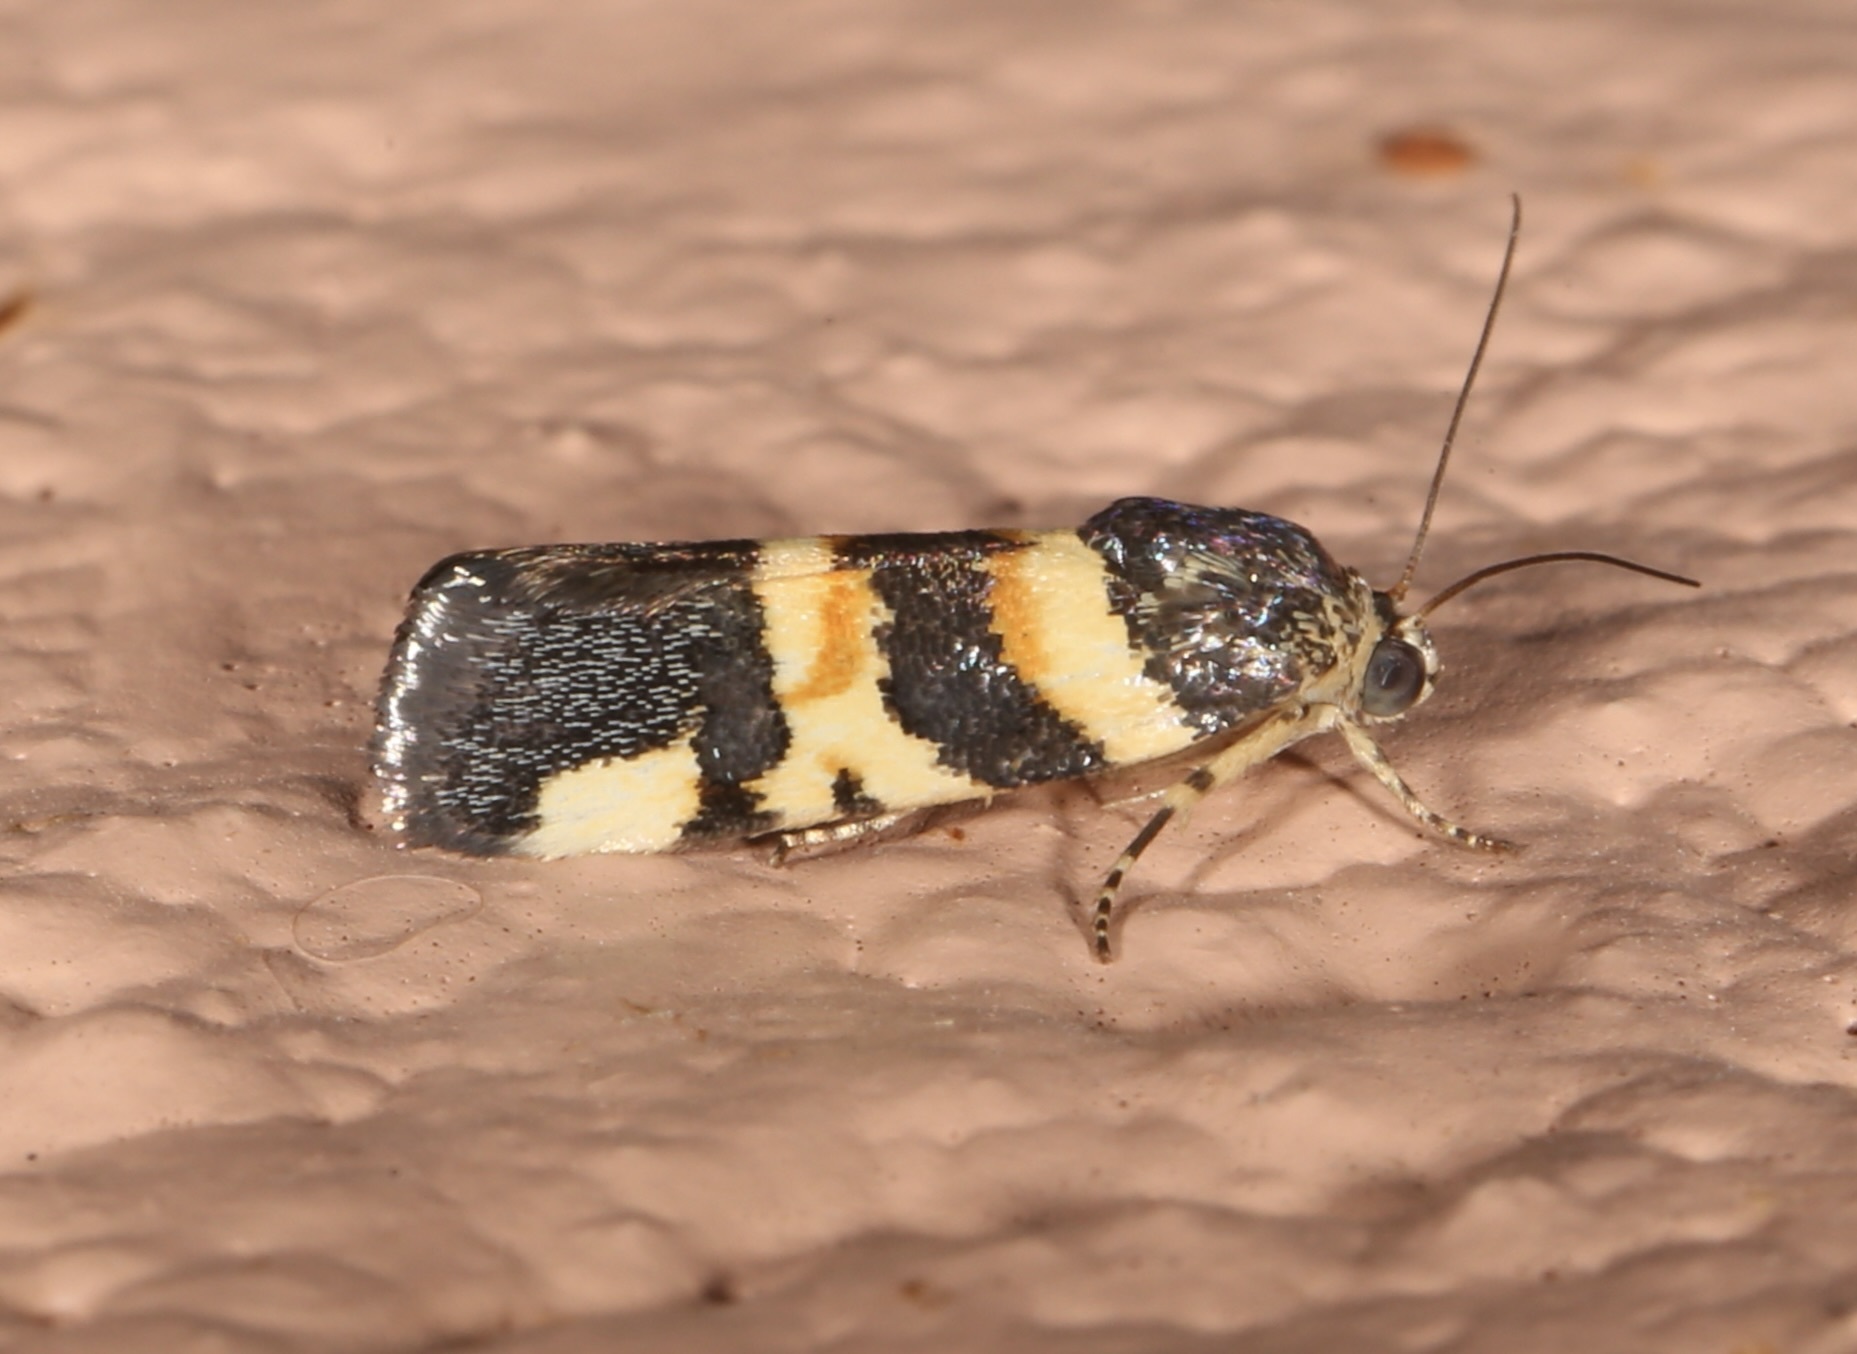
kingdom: Animalia
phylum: Arthropoda
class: Insecta
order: Lepidoptera
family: Noctuidae
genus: Spragueia
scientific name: Spragueia funeralis
